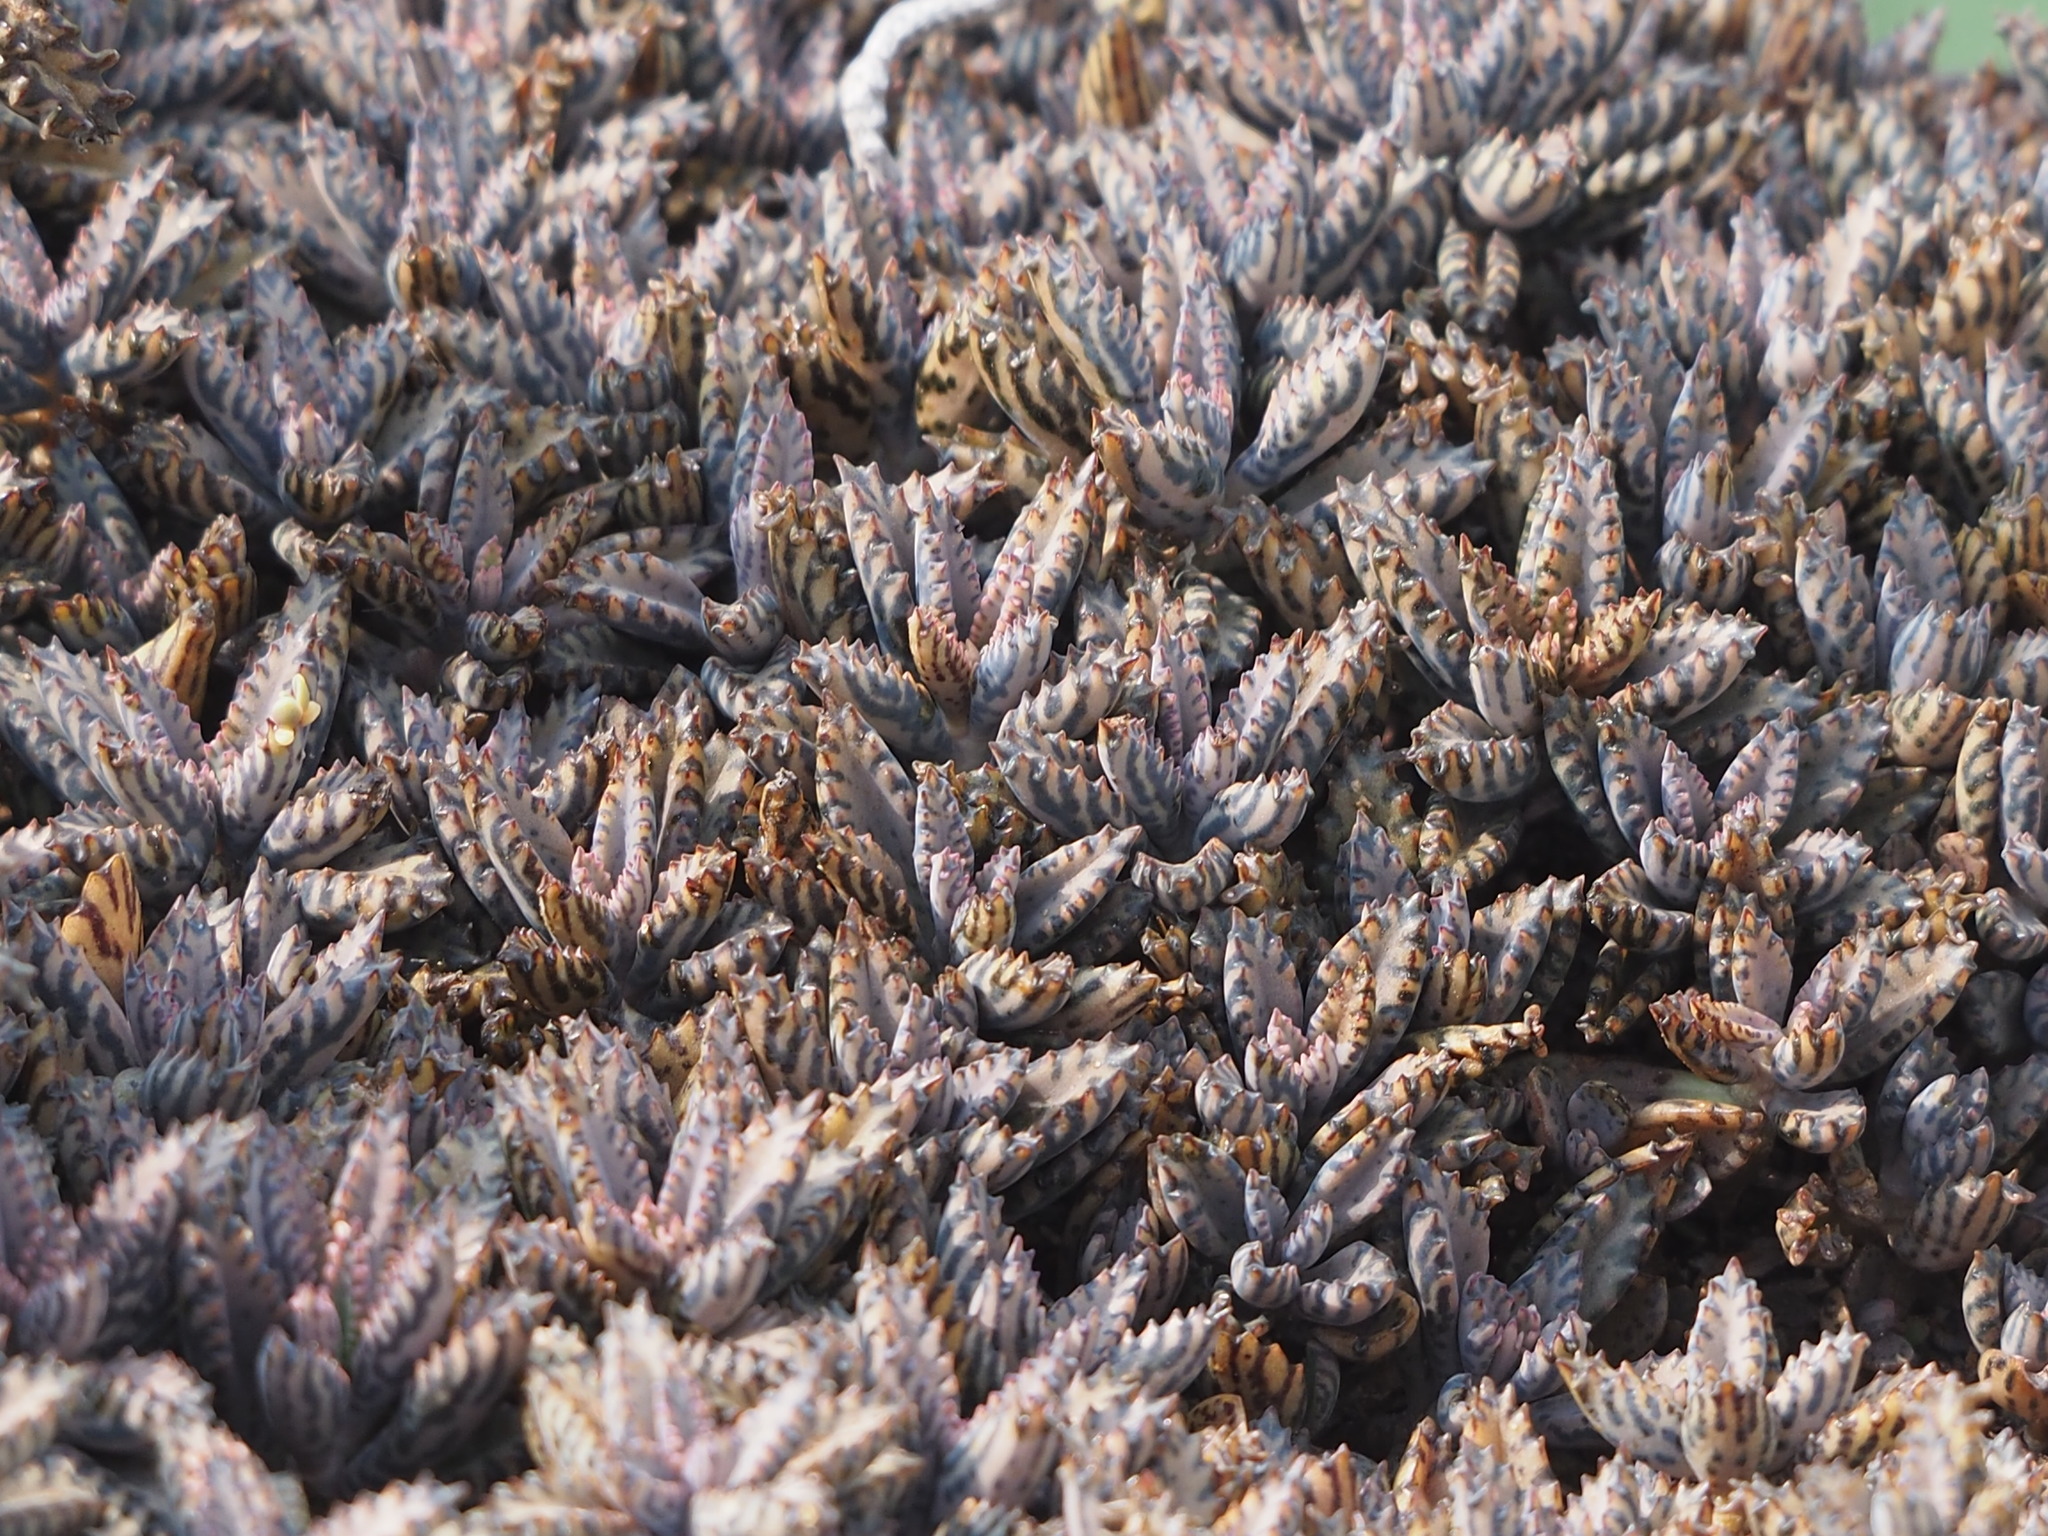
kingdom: Plantae
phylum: Tracheophyta
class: Magnoliopsida
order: Saxifragales
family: Crassulaceae
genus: Kalanchoe
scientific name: Kalanchoe houghtonii
